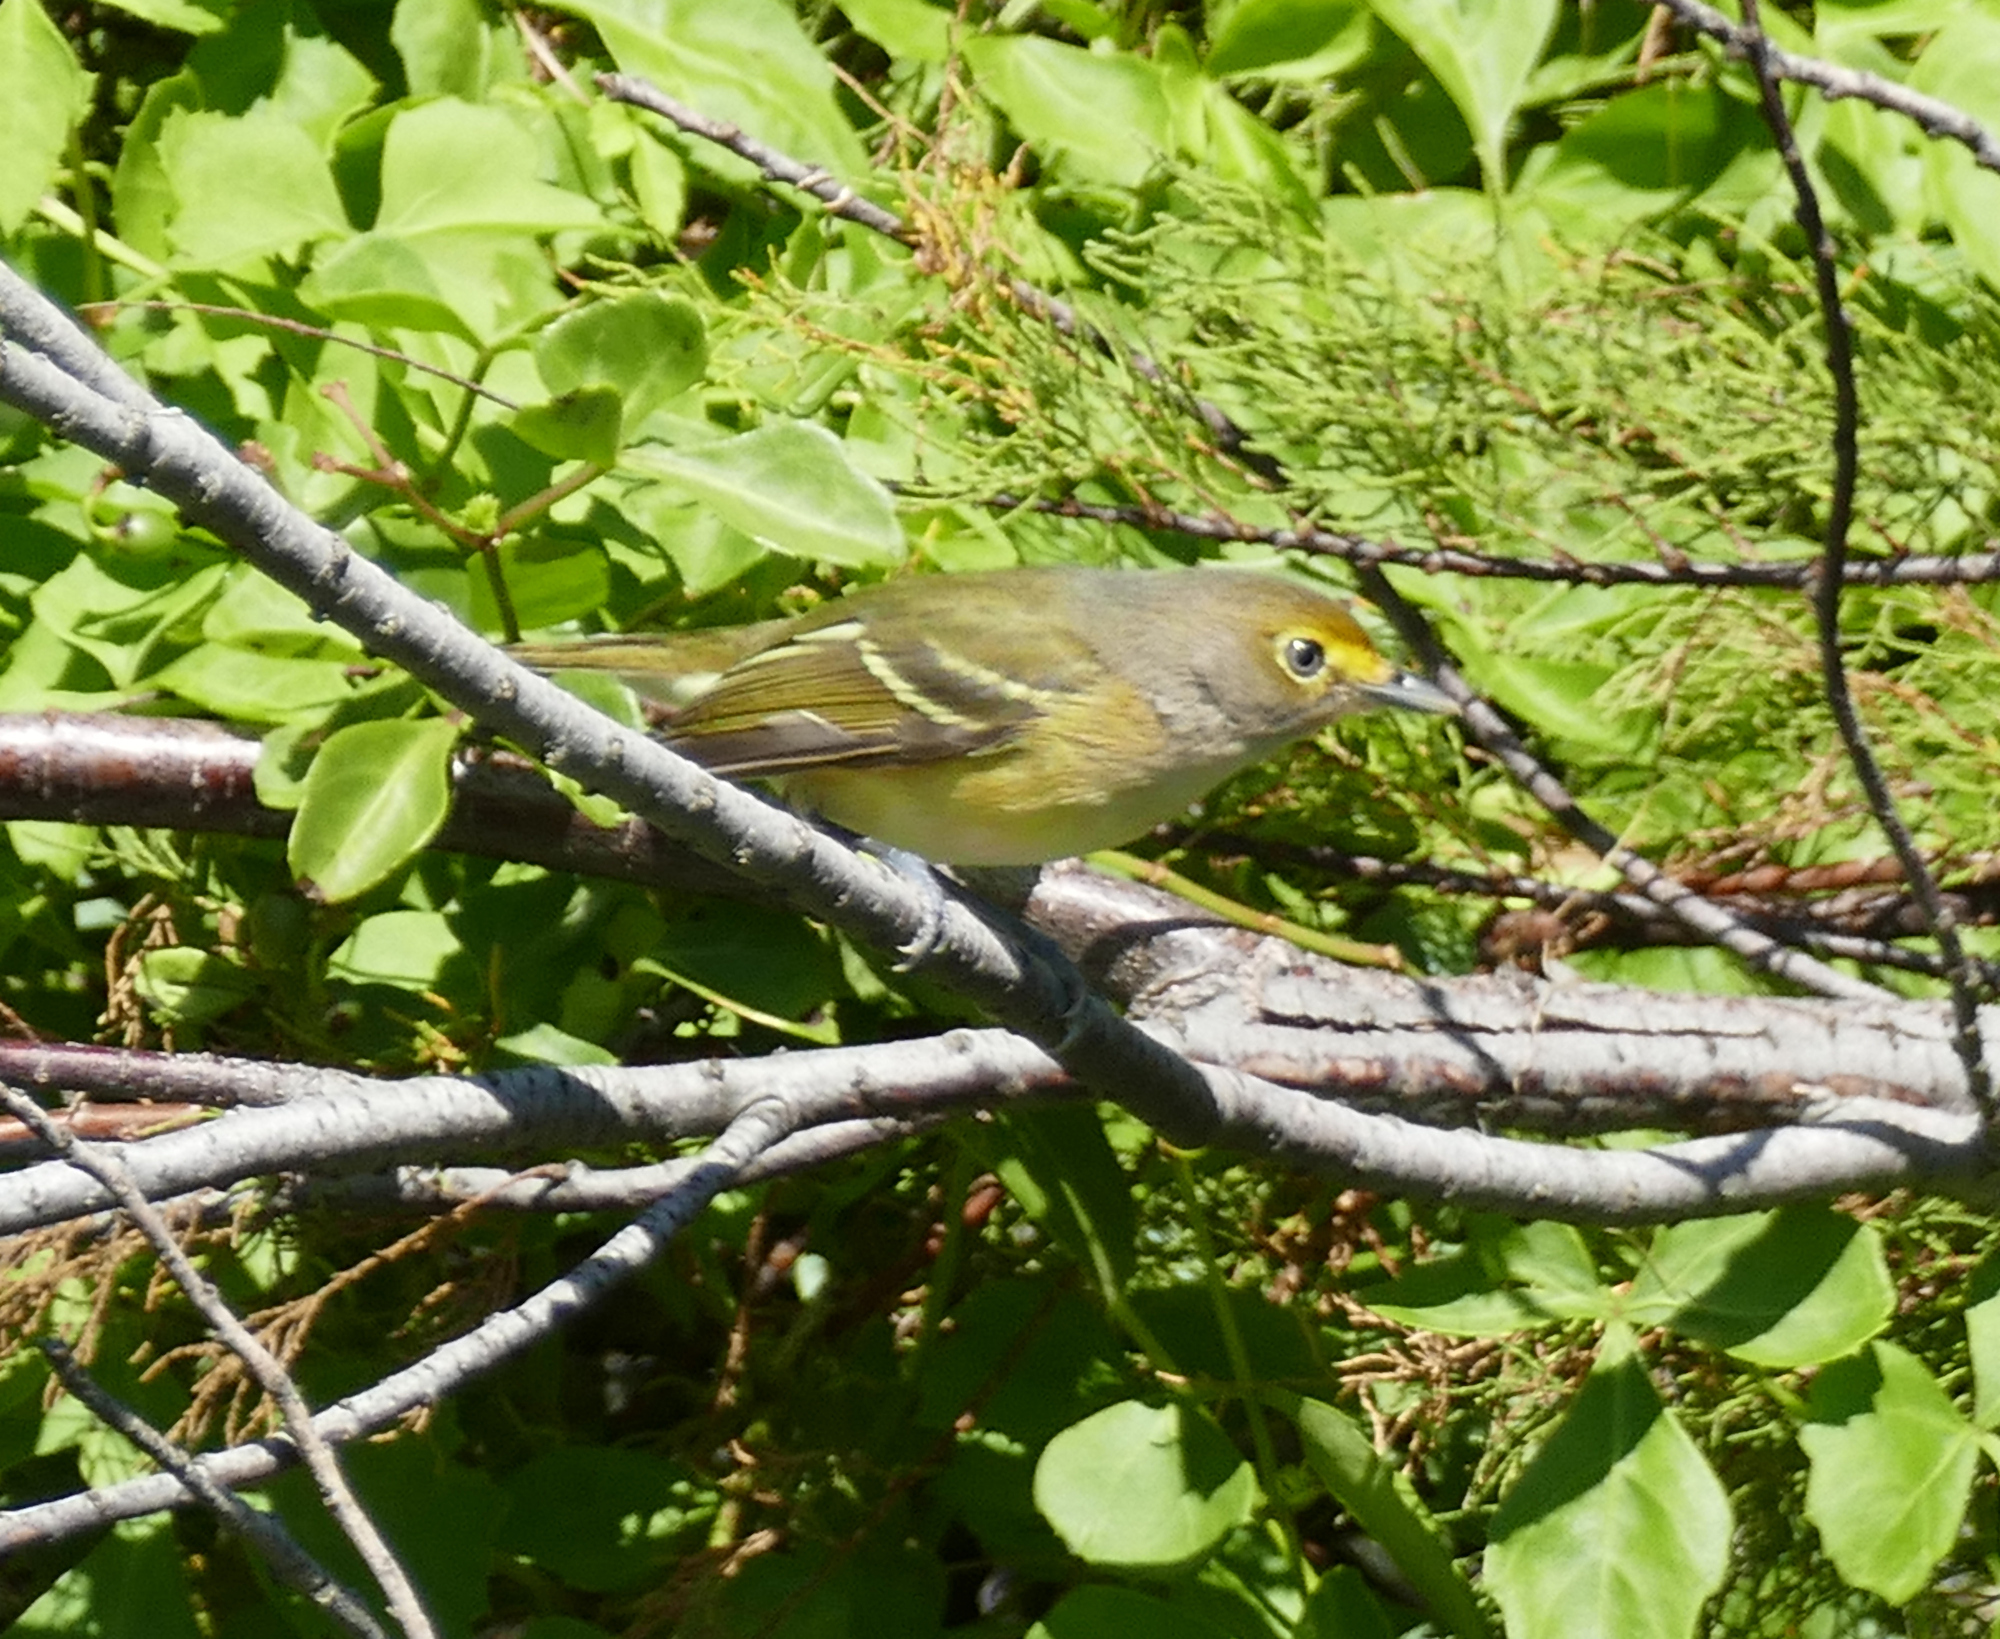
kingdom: Animalia
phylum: Chordata
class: Aves
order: Passeriformes
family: Vireonidae
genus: Vireo
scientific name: Vireo griseus
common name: White-eyed vireo
